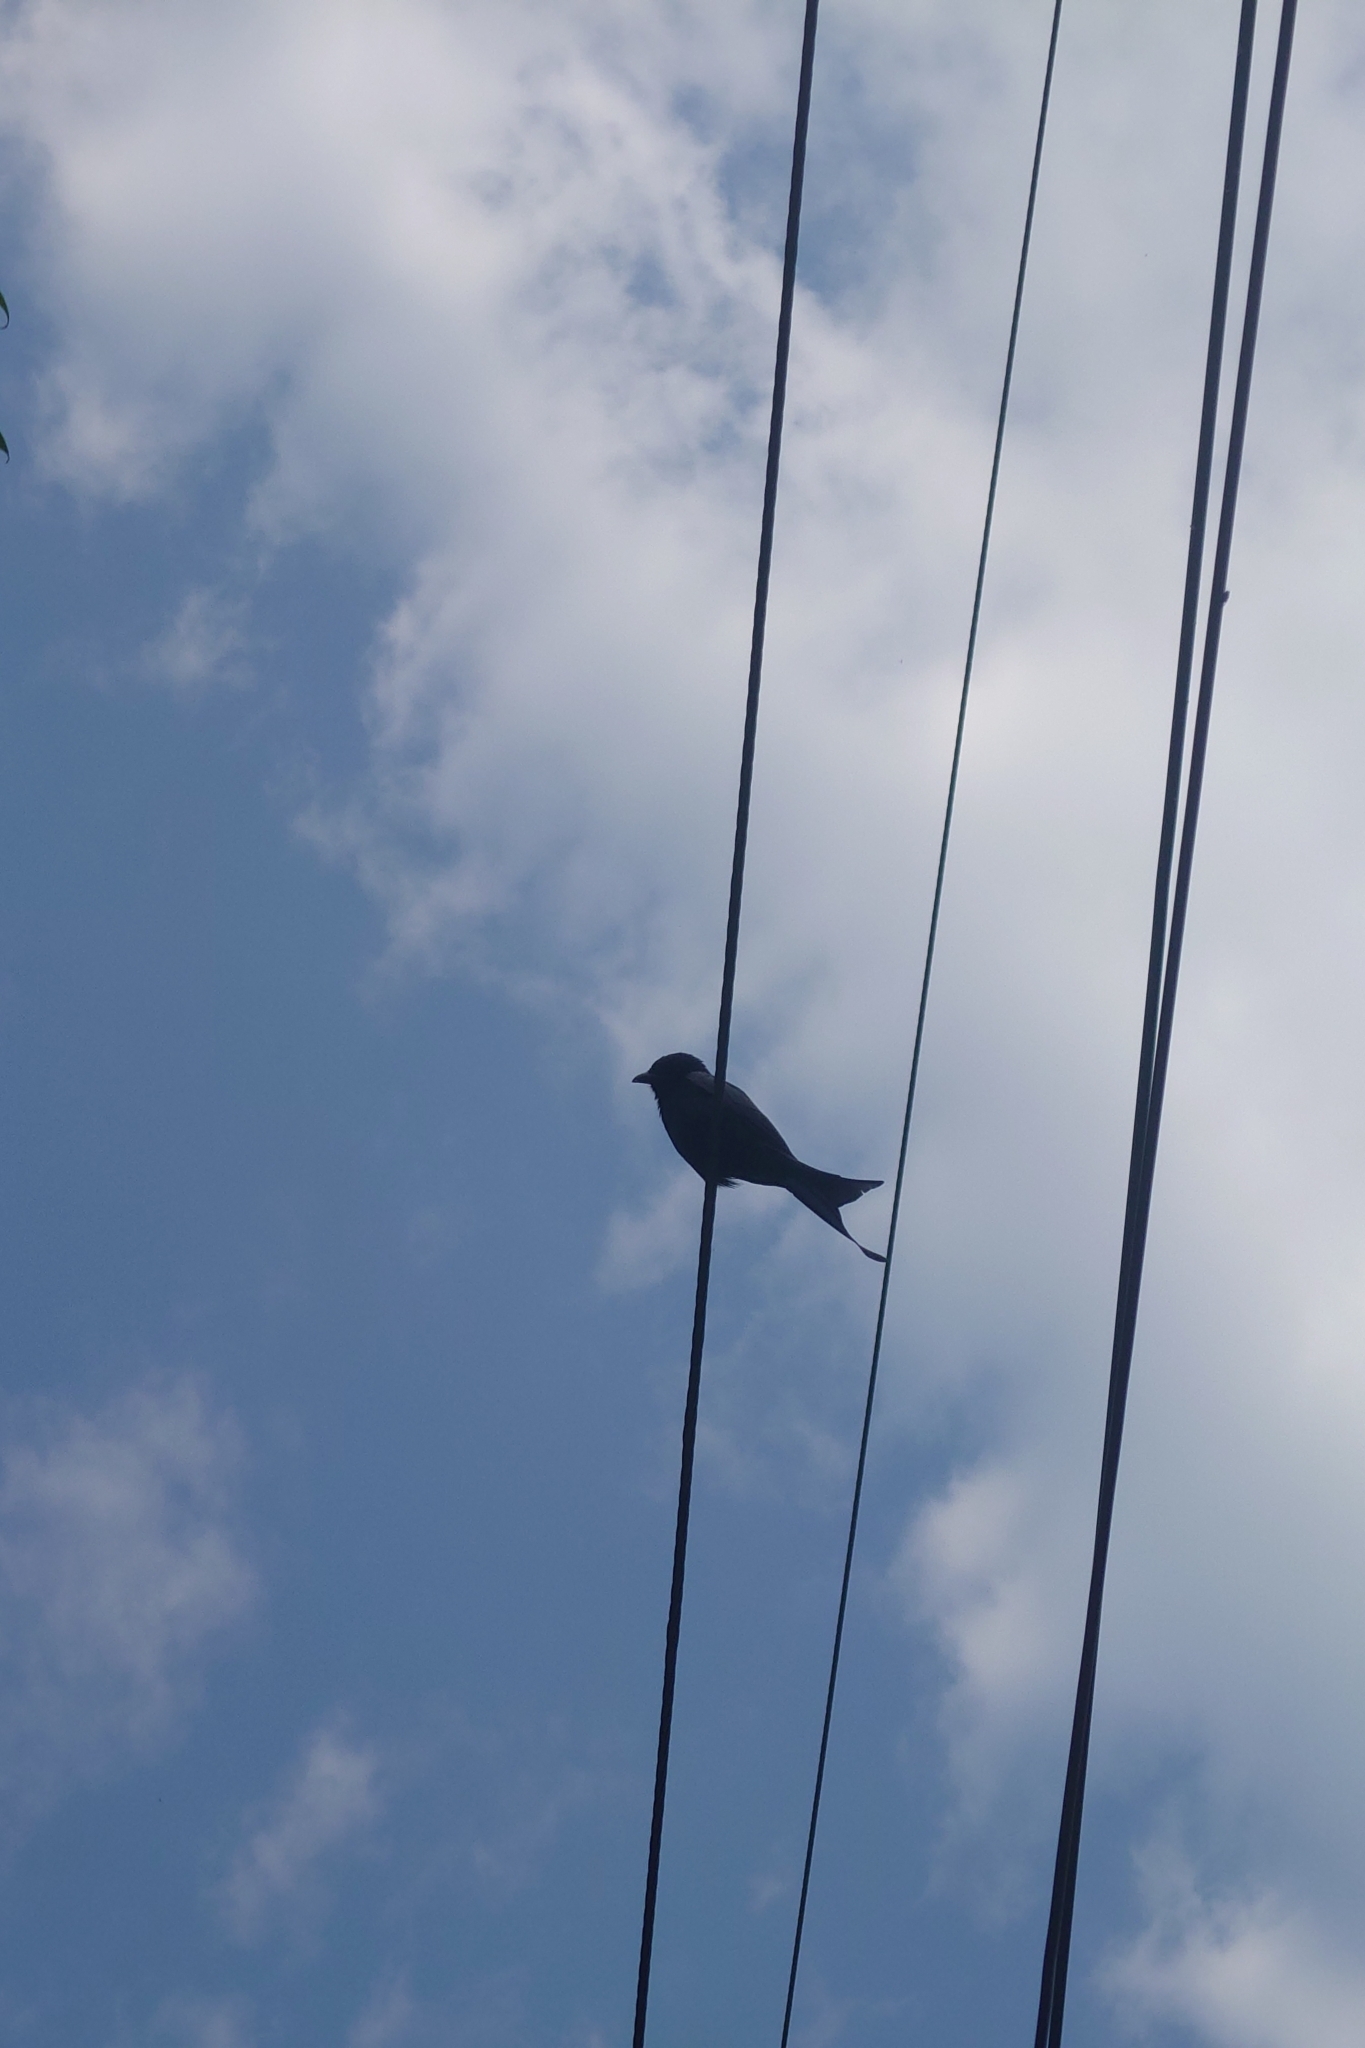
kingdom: Animalia
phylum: Chordata
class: Aves
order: Passeriformes
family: Dicruridae
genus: Dicrurus
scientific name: Dicrurus macrocercus
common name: Black drongo
